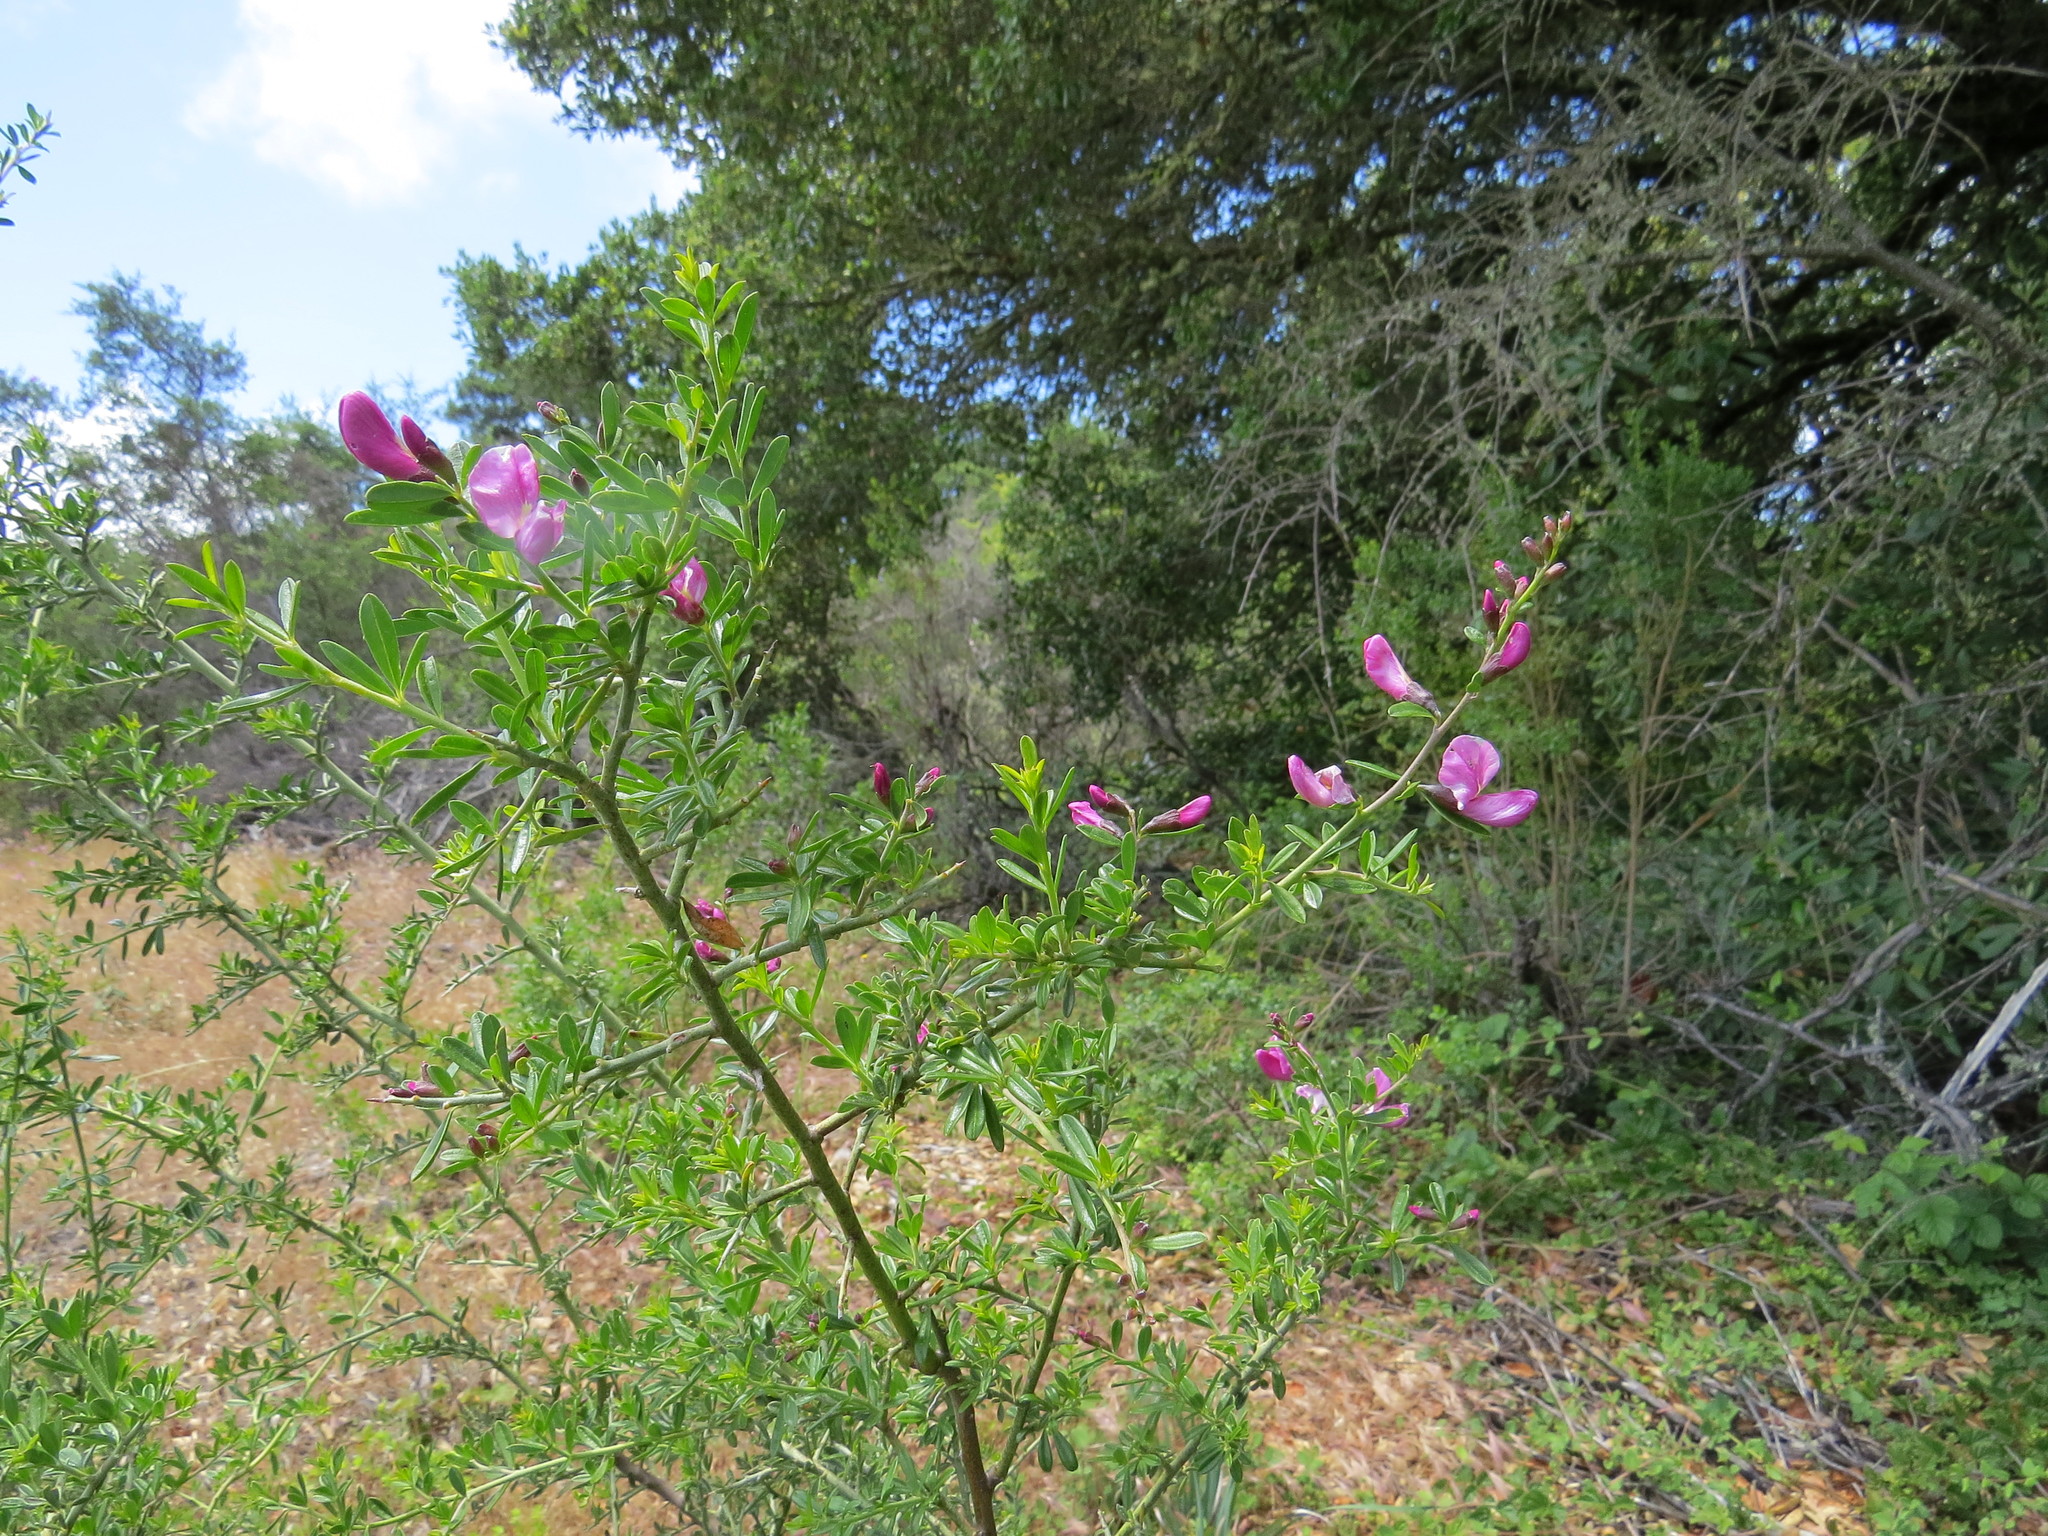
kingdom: Plantae
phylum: Tracheophyta
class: Magnoliopsida
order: Fabales
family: Fabaceae
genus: Pickeringia
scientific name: Pickeringia montana
